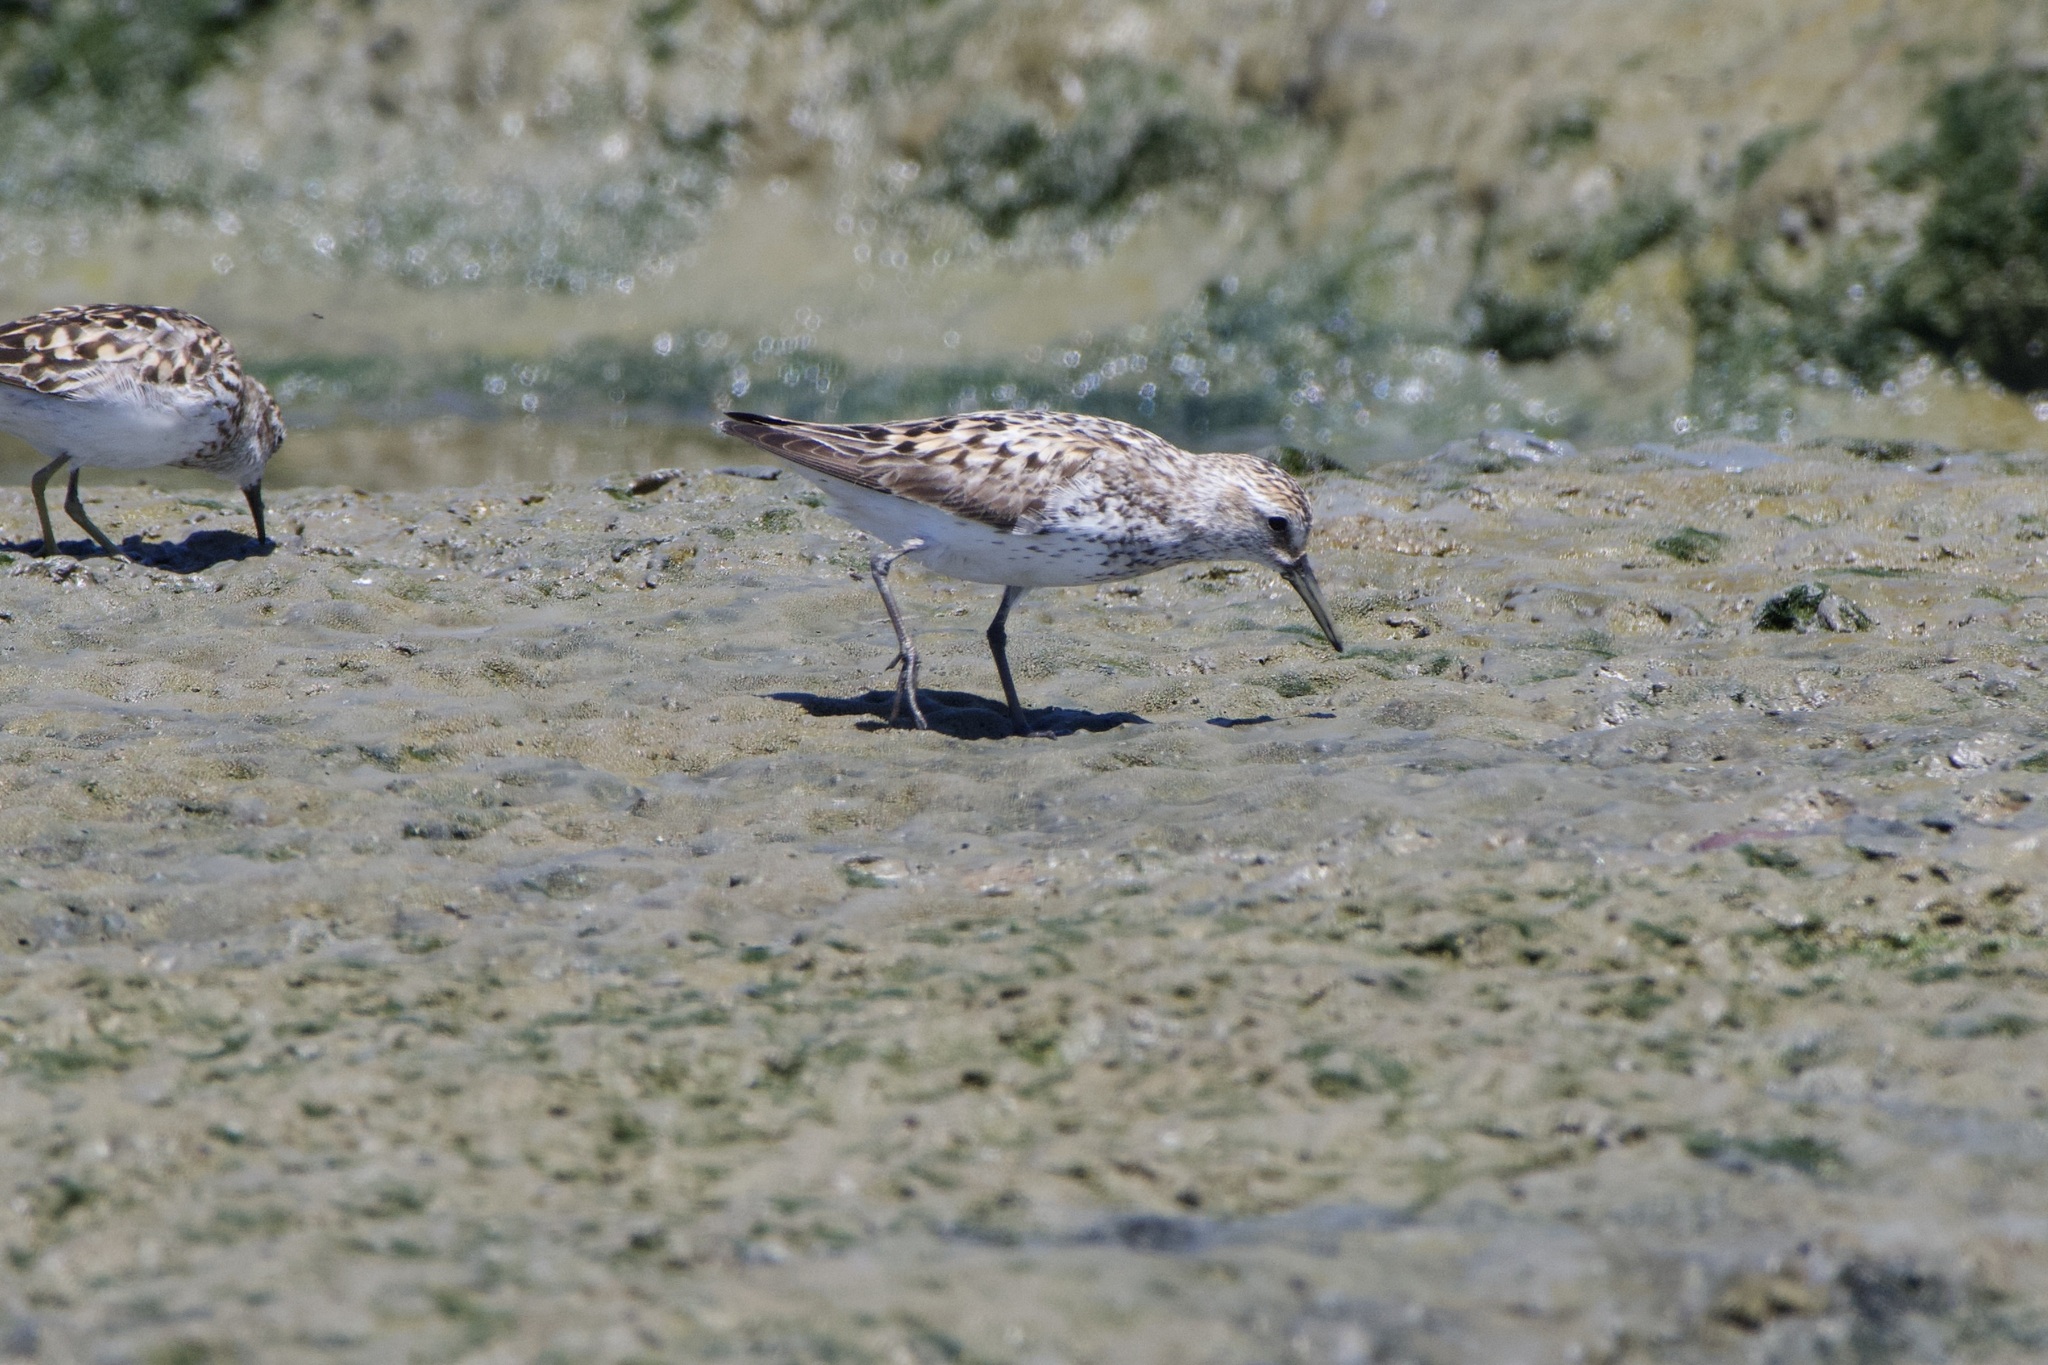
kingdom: Animalia
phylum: Chordata
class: Aves
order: Charadriiformes
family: Scolopacidae
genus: Calidris
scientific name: Calidris mauri
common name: Western sandpiper
